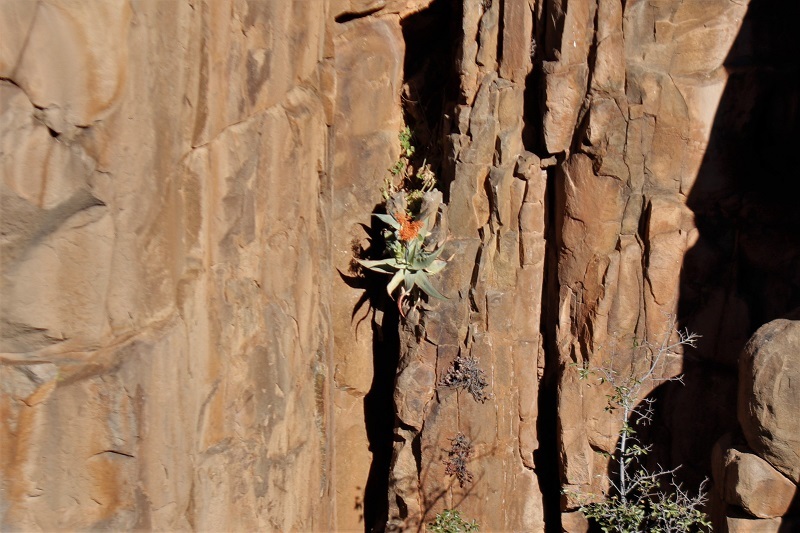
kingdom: Plantae
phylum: Tracheophyta
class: Liliopsida
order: Asparagales
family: Asphodelaceae
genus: Aloe
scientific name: Aloe striata
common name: Coral aloe
